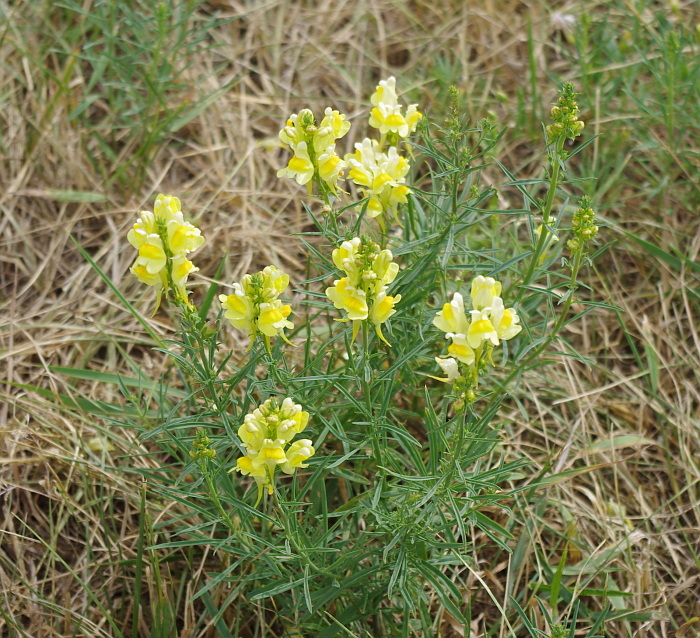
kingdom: Plantae
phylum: Tracheophyta
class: Magnoliopsida
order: Lamiales
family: Plantaginaceae
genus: Linaria
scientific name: Linaria vulgaris
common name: Butter and eggs
